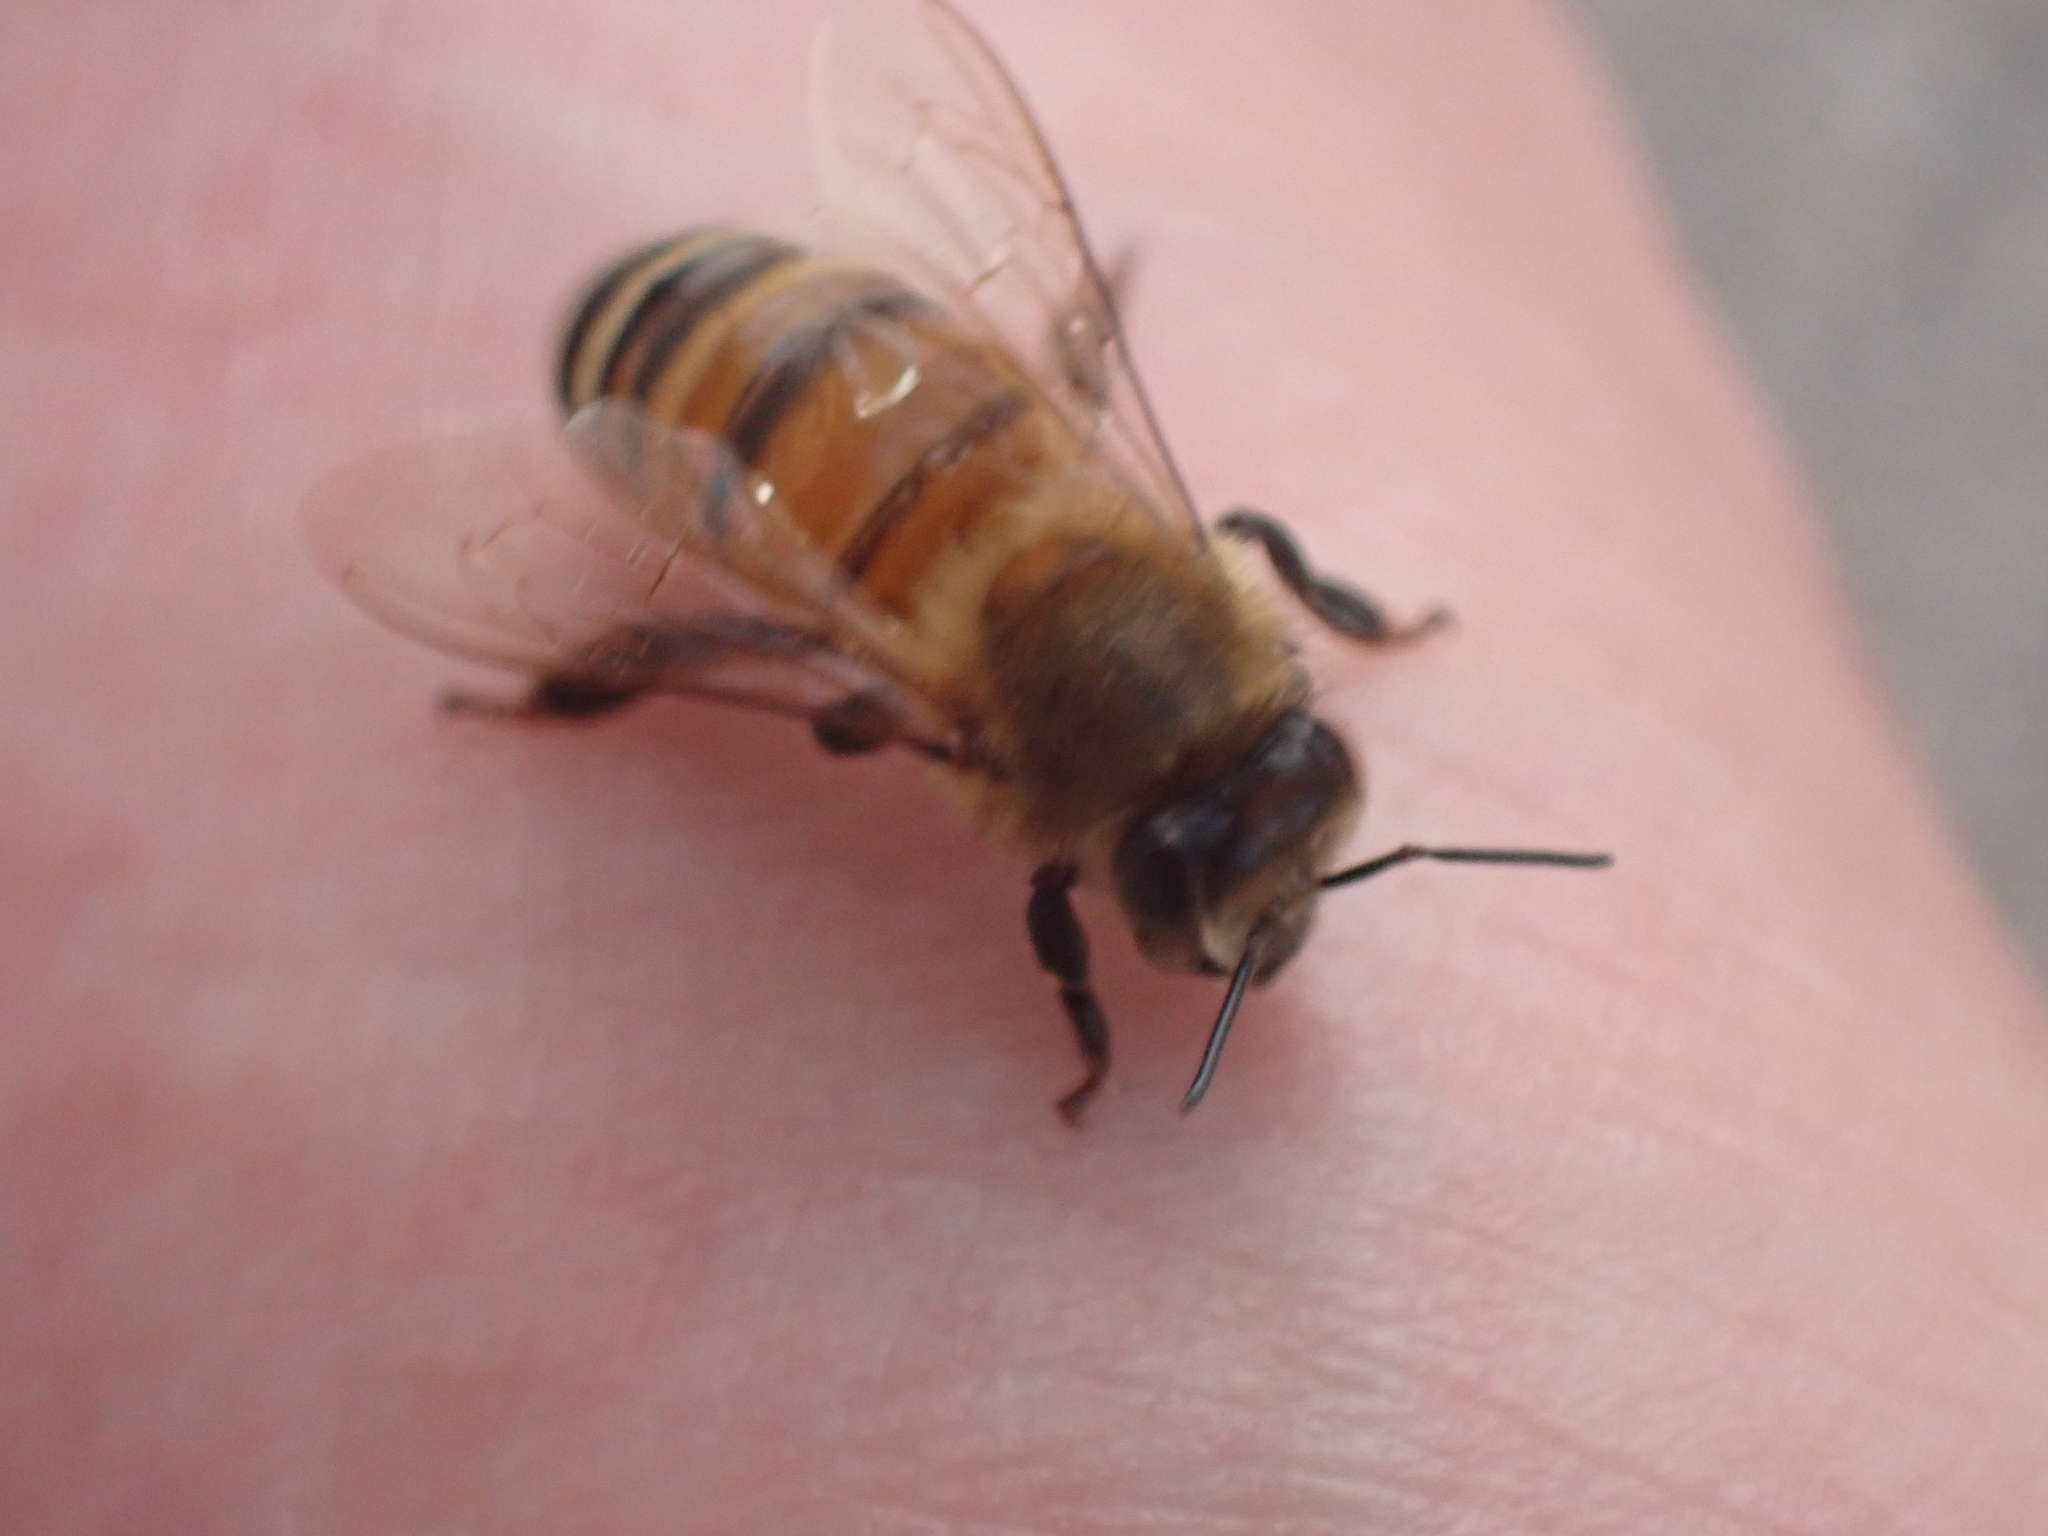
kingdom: Animalia
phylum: Arthropoda
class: Insecta
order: Hymenoptera
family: Apidae
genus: Apis
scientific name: Apis mellifera
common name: Honey bee
